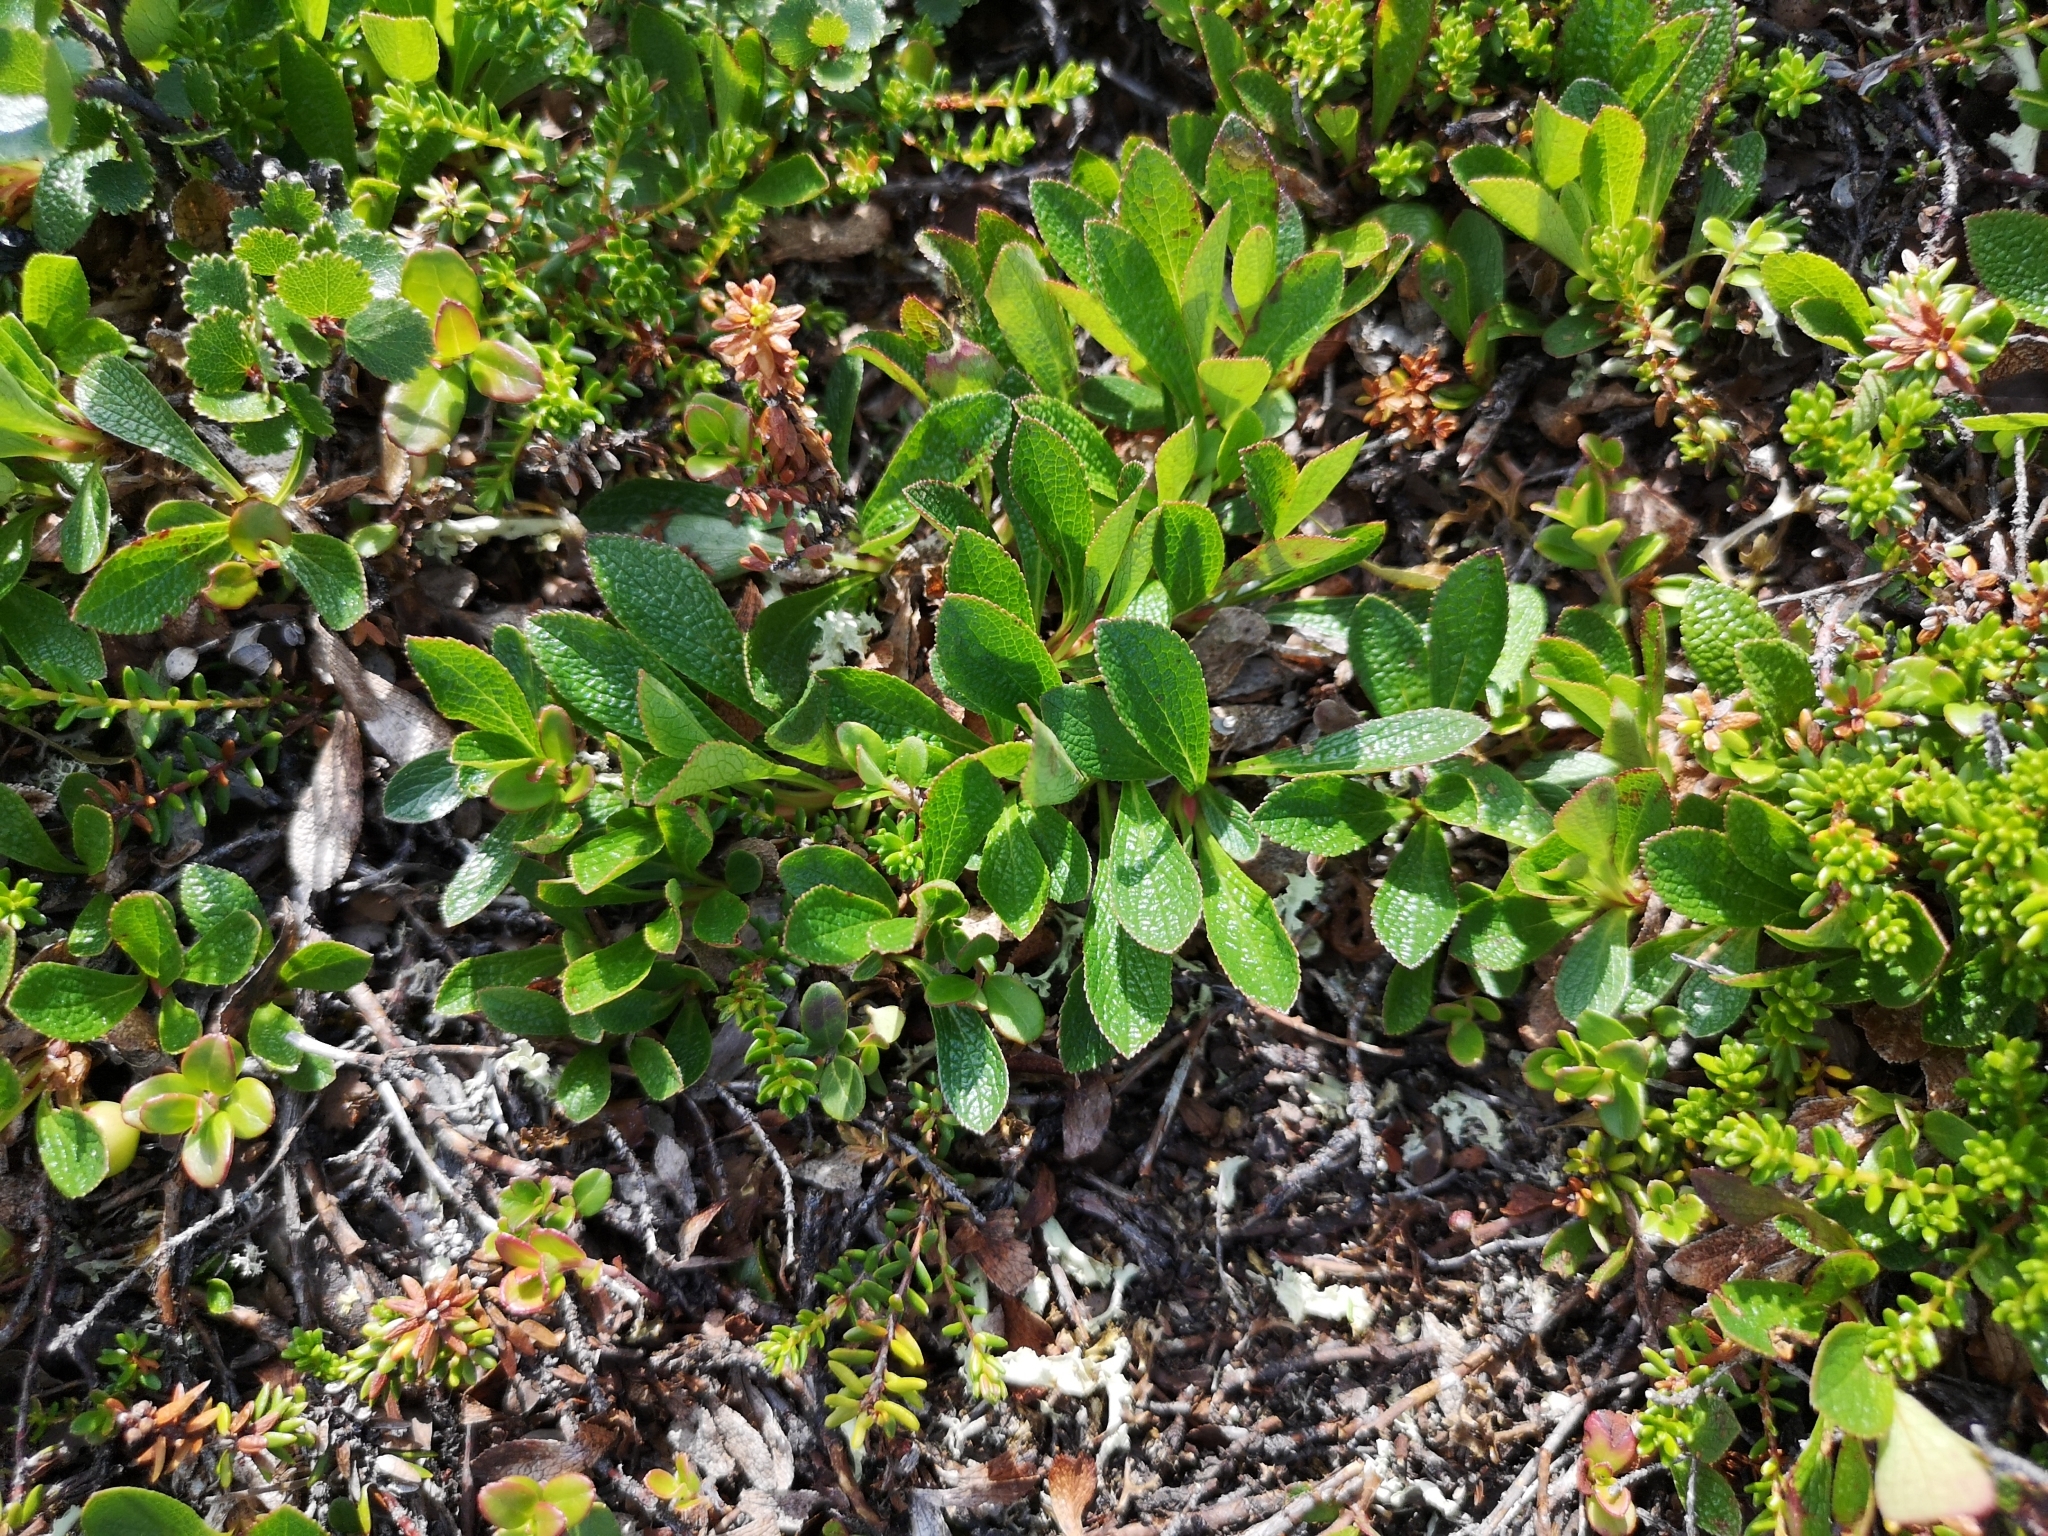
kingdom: Plantae
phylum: Tracheophyta
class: Magnoliopsida
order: Ericales
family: Ericaceae
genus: Arctostaphylos
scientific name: Arctostaphylos alpinus
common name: Alpine bearberry
